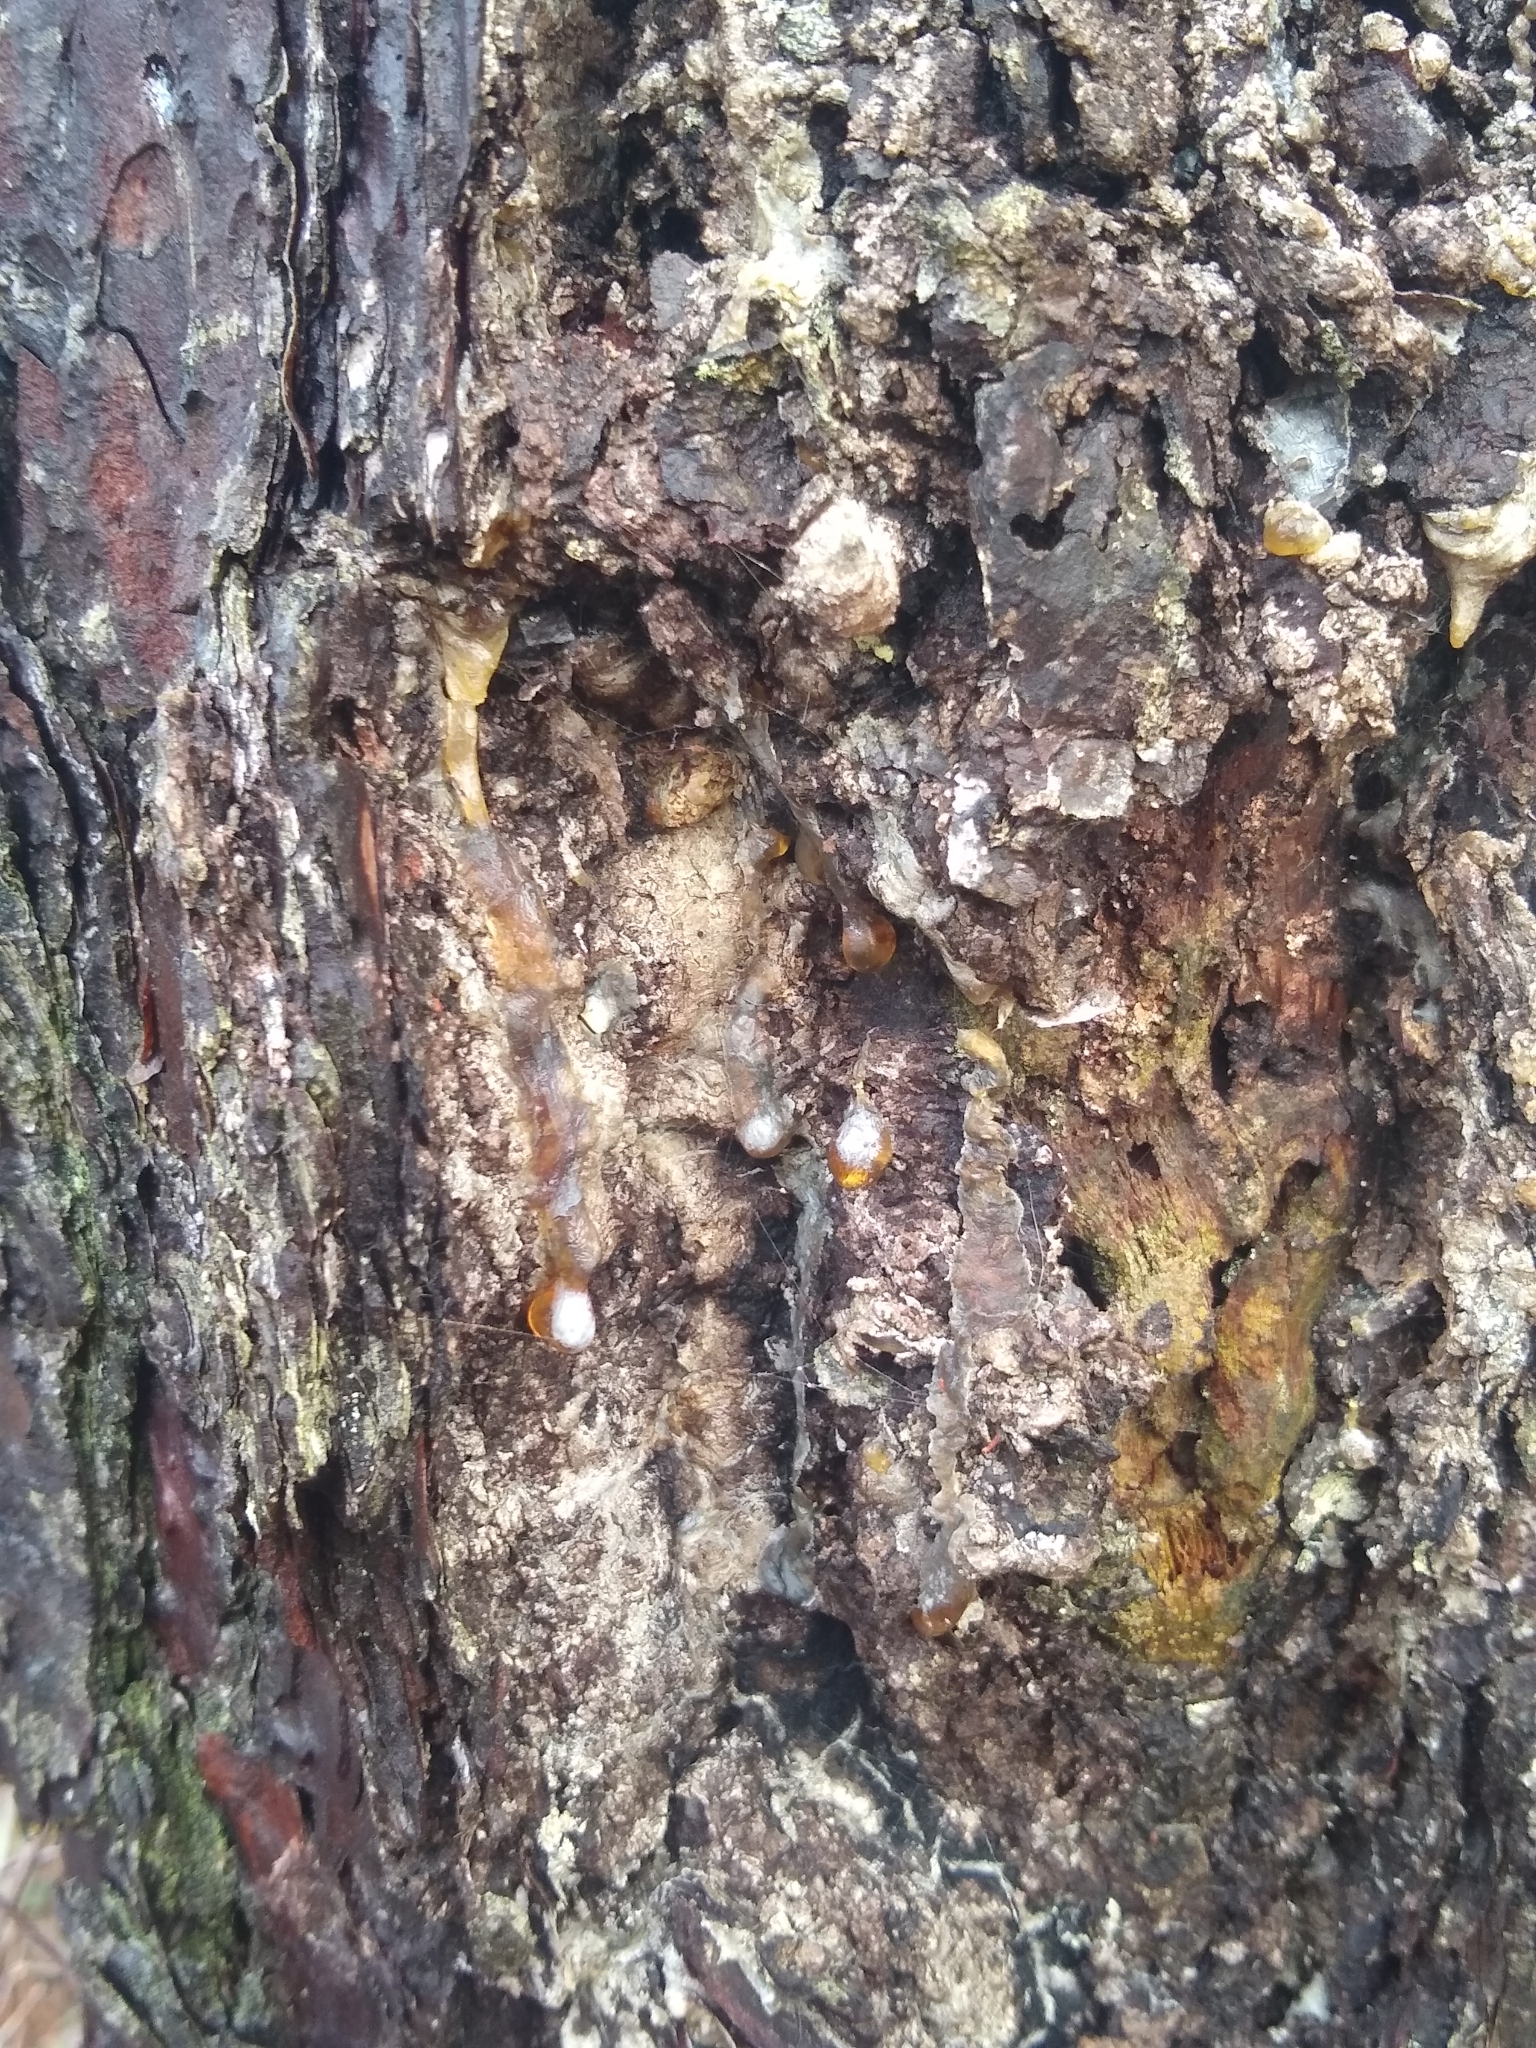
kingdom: Plantae
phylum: Tracheophyta
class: Pinopsida
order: Pinales
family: Pinaceae
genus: Pinus
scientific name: Pinus serotina
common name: Marsh pine
